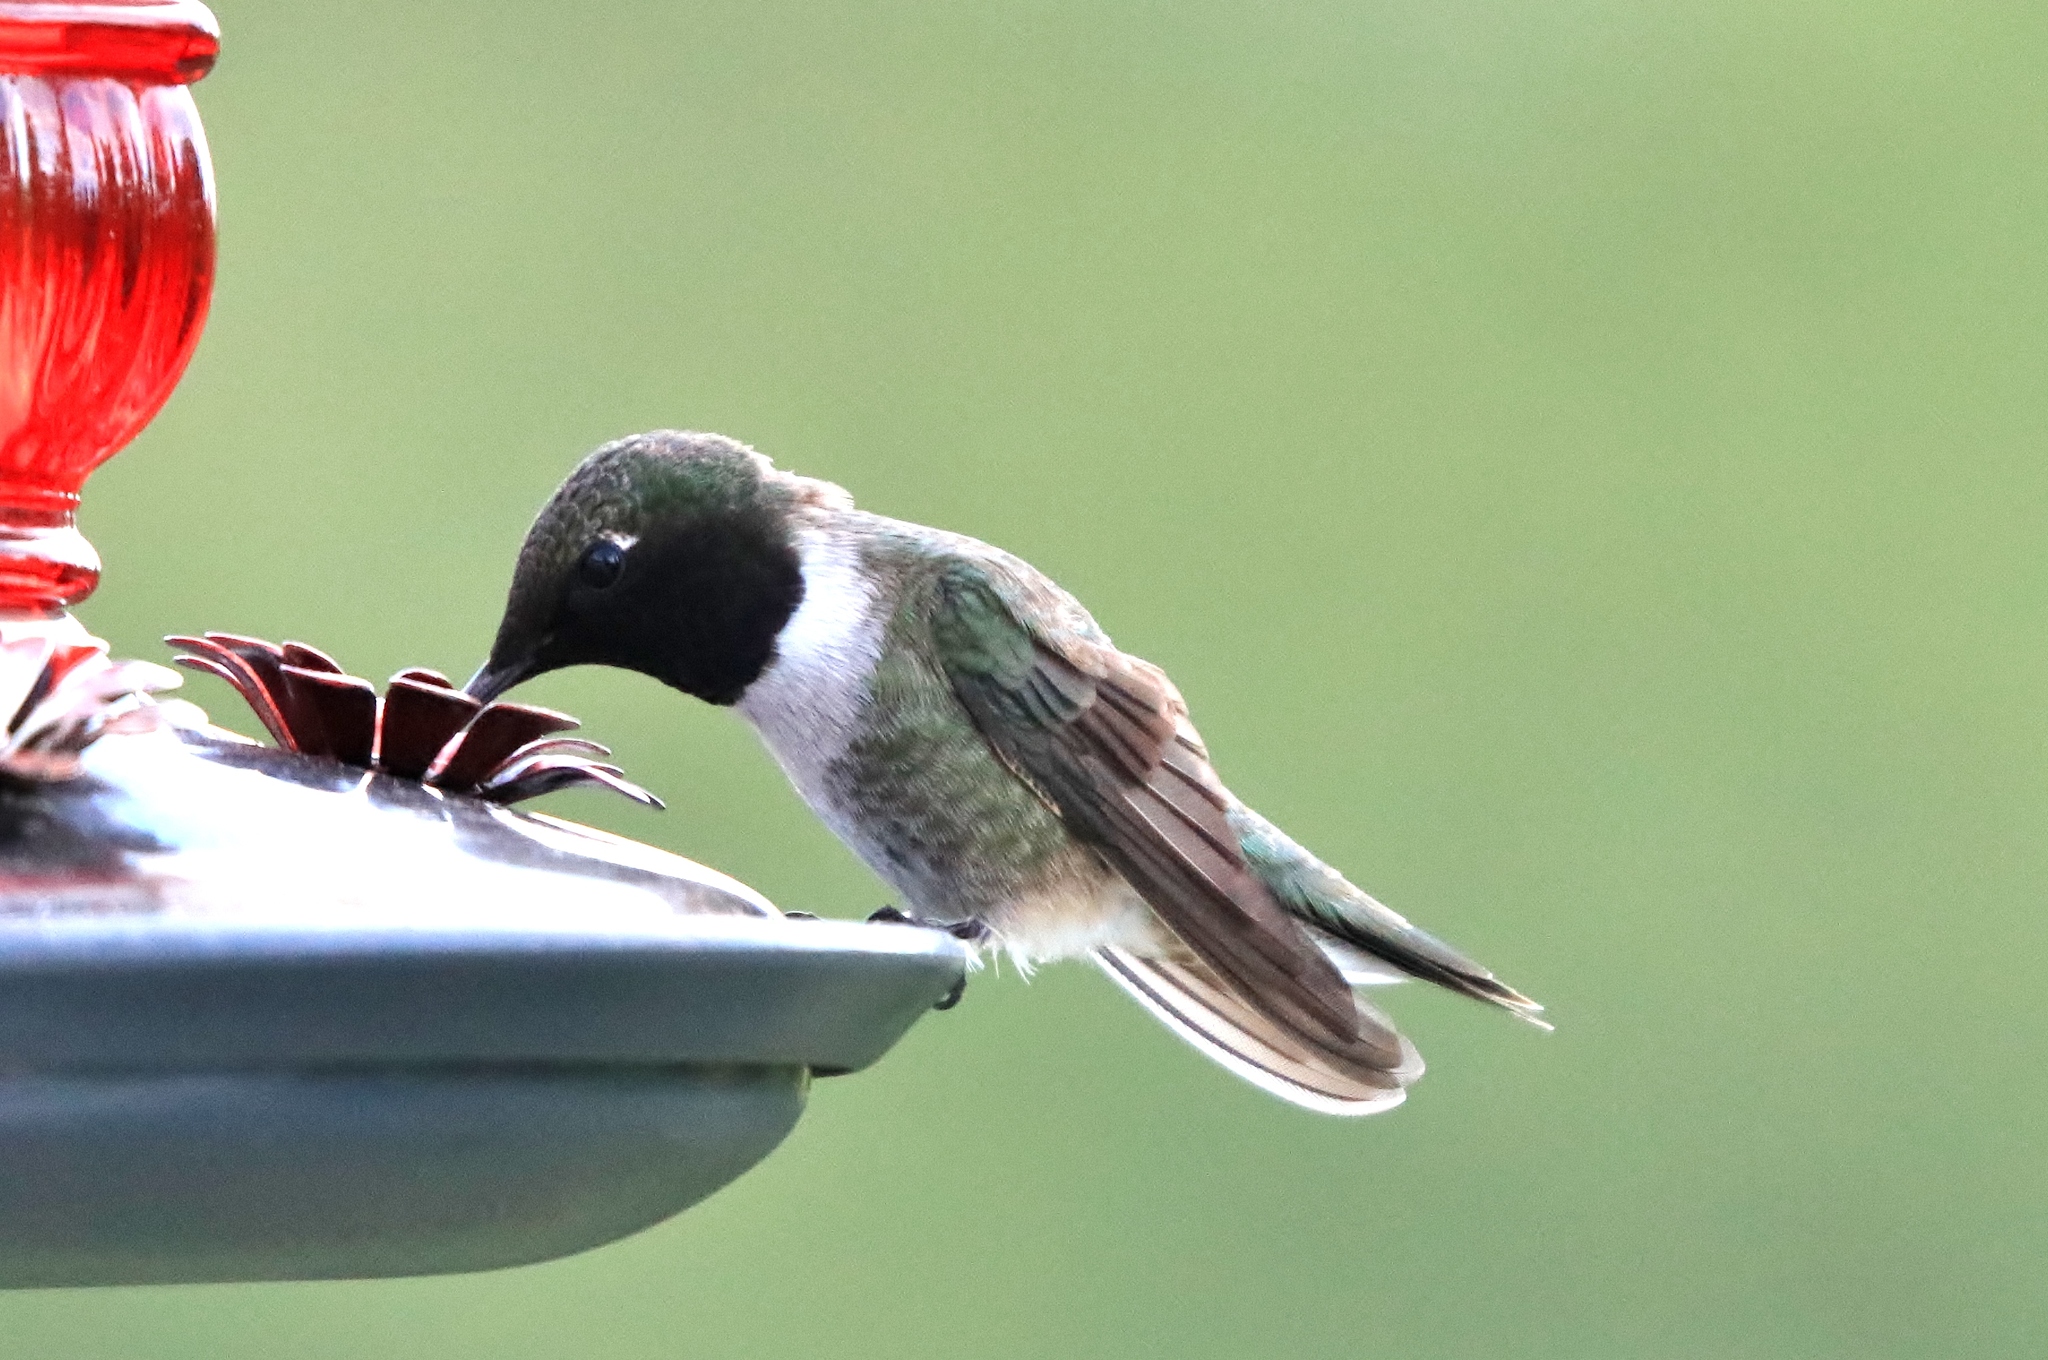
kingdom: Animalia
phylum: Chordata
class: Aves
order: Apodiformes
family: Trochilidae
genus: Archilochus
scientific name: Archilochus alexandri
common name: Black-chinned hummingbird
